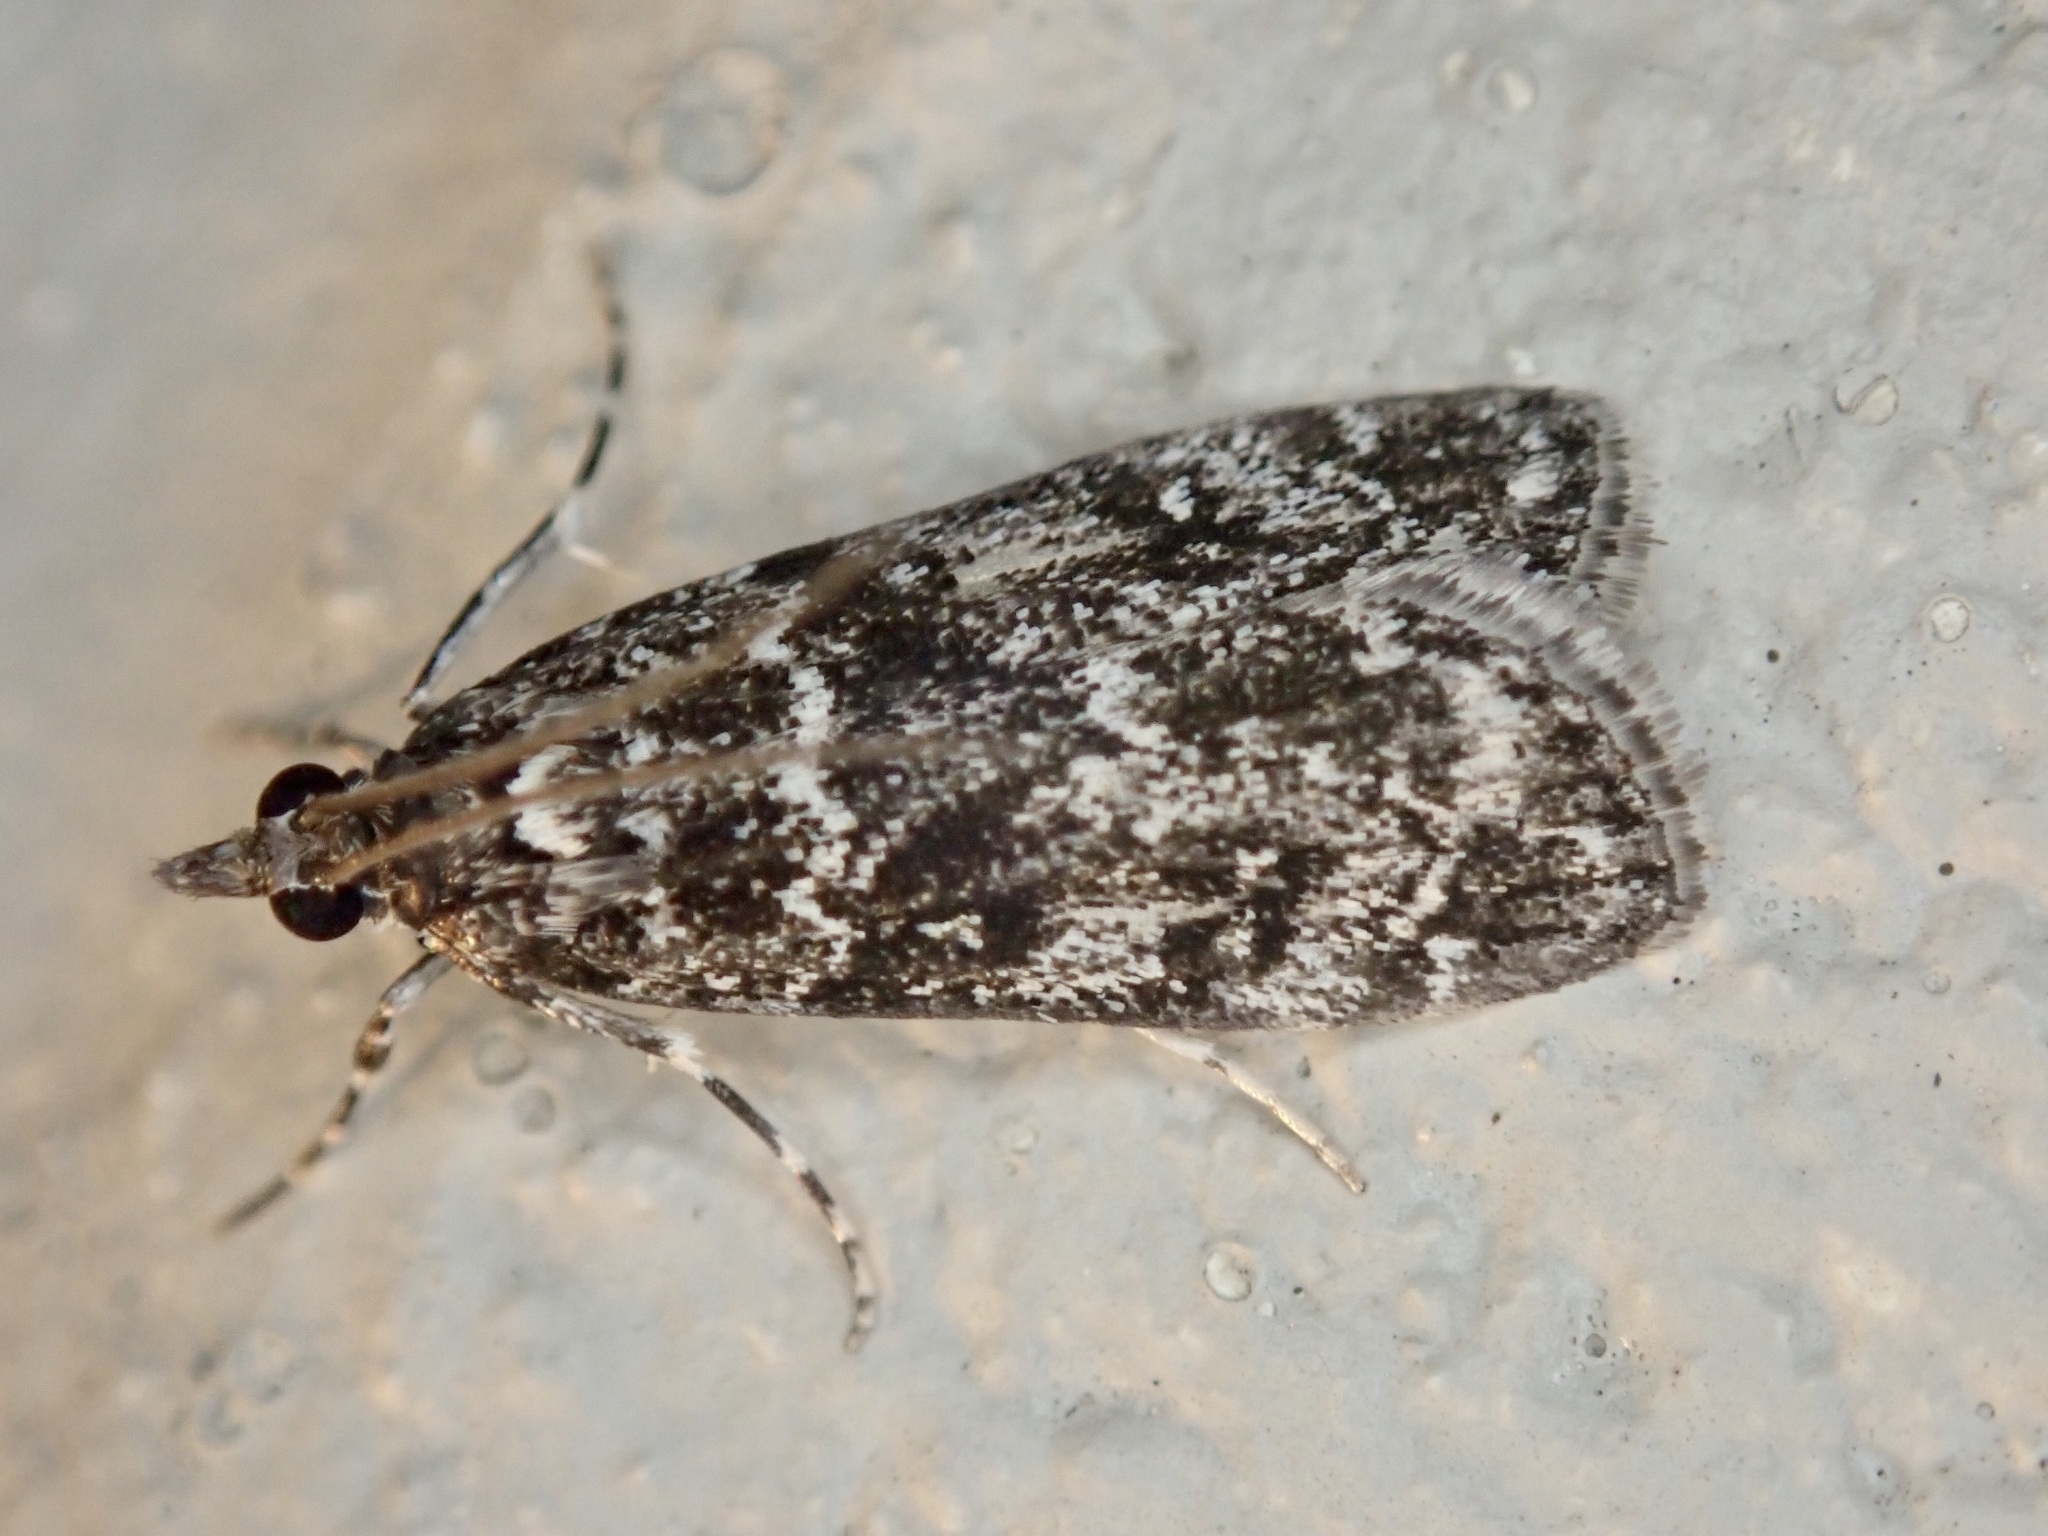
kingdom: Animalia
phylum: Arthropoda
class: Insecta
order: Lepidoptera
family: Crambidae
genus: Eudonia
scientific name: Eudonia philerga
